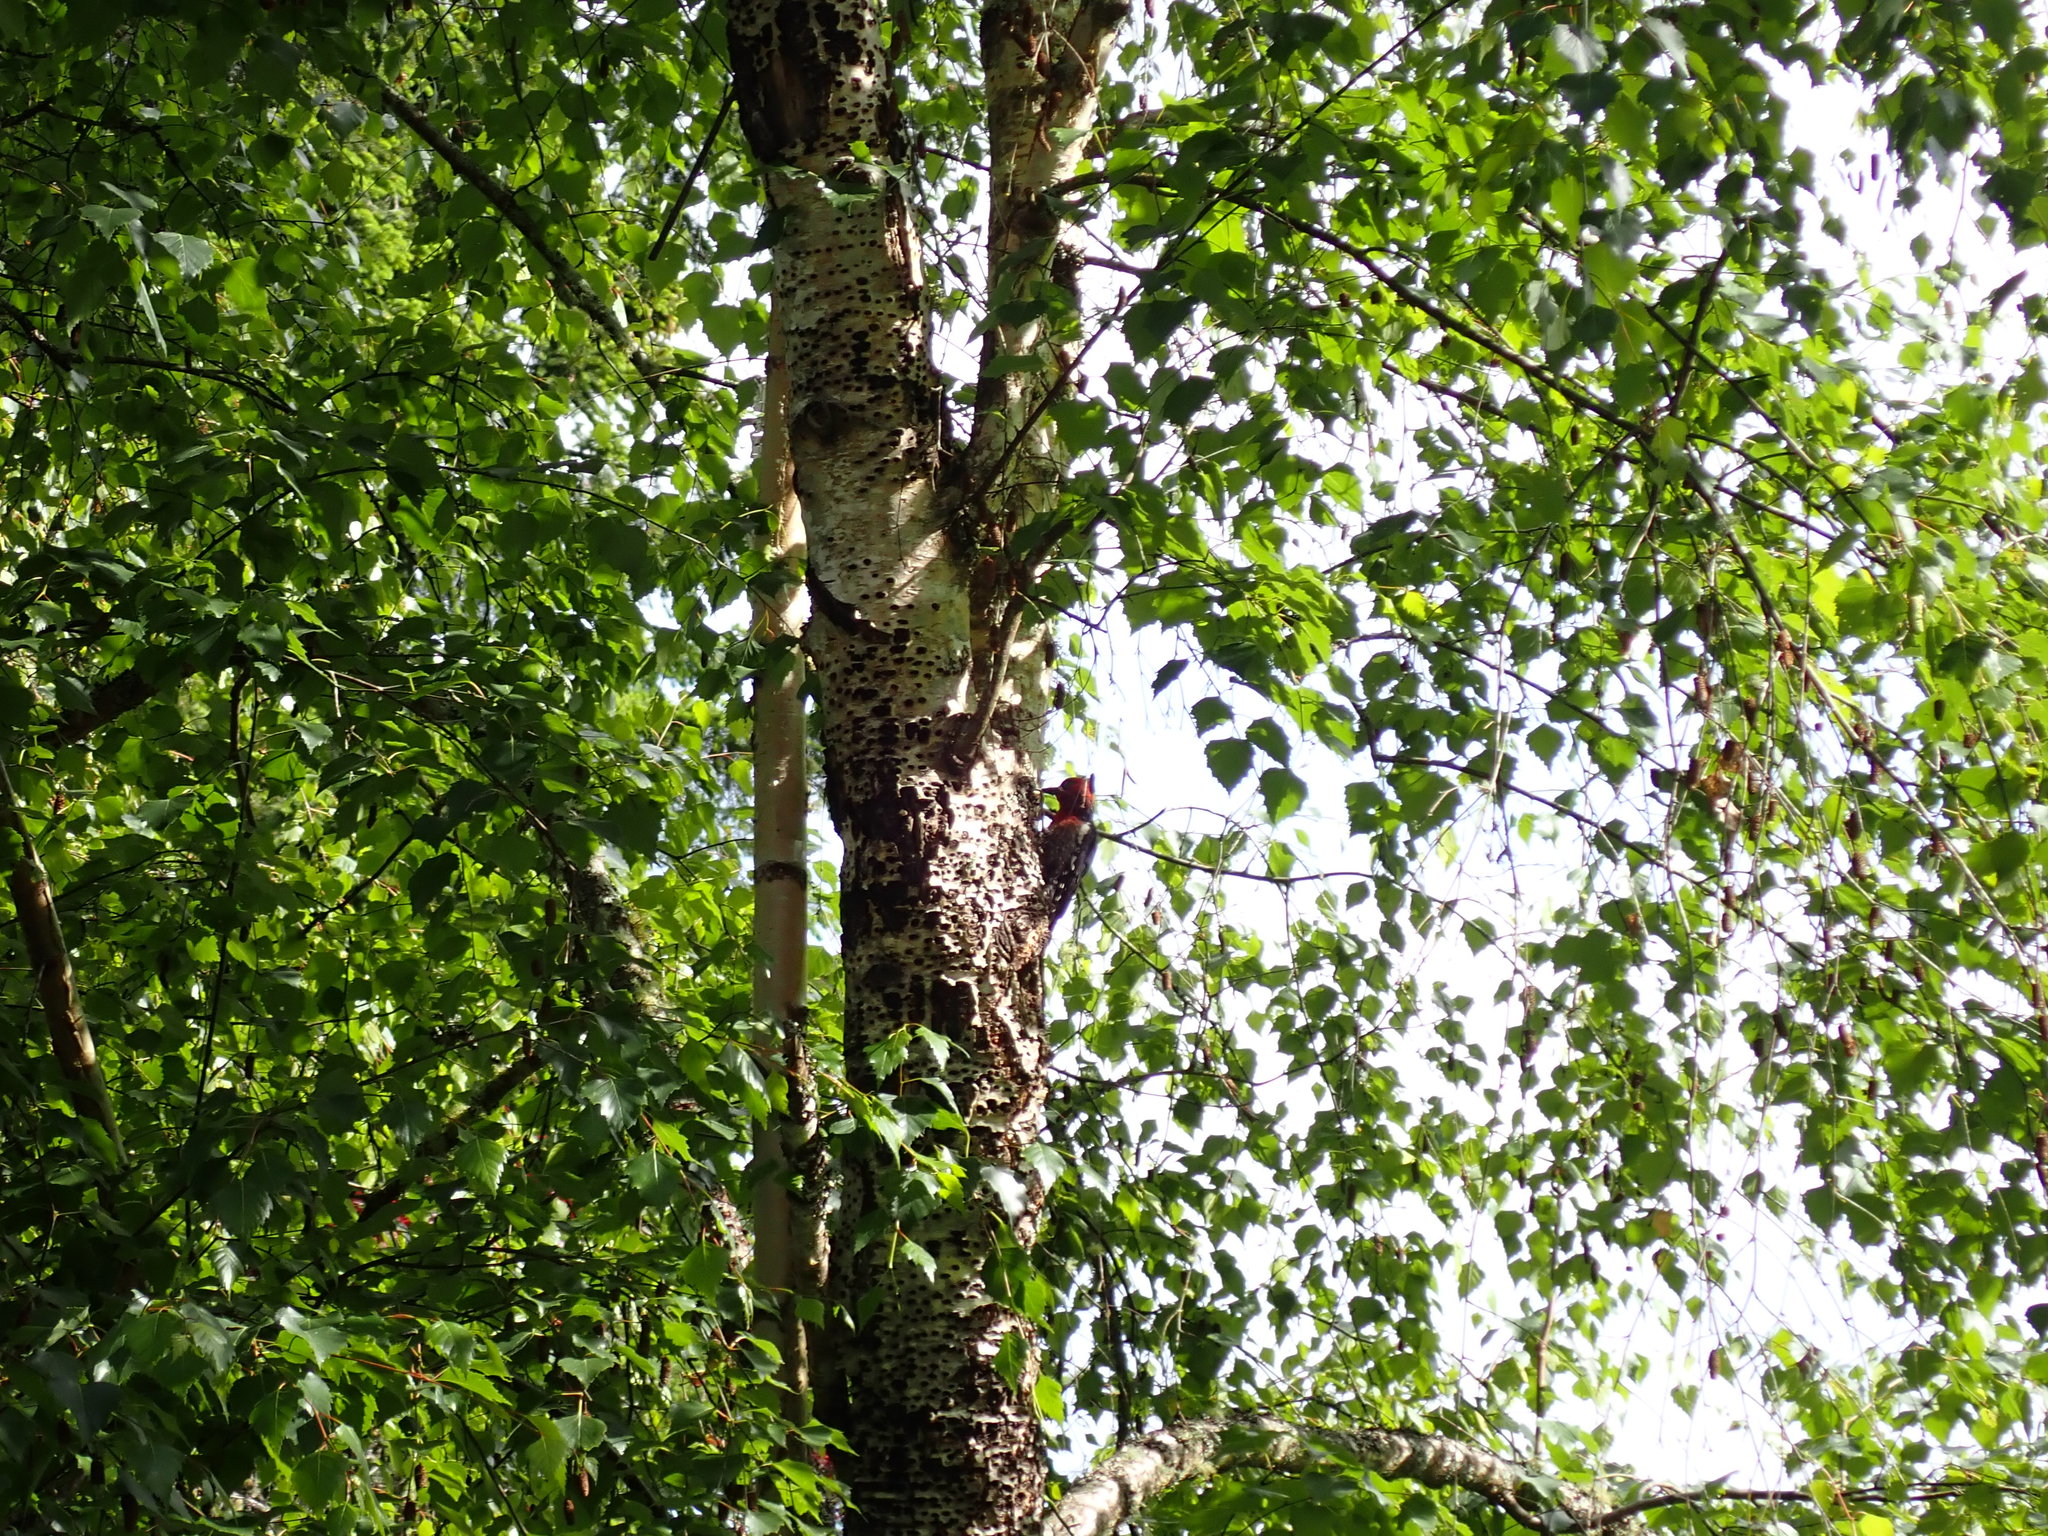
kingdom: Animalia
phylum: Chordata
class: Aves
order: Piciformes
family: Picidae
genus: Sphyrapicus
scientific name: Sphyrapicus ruber
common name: Red-breasted sapsucker
